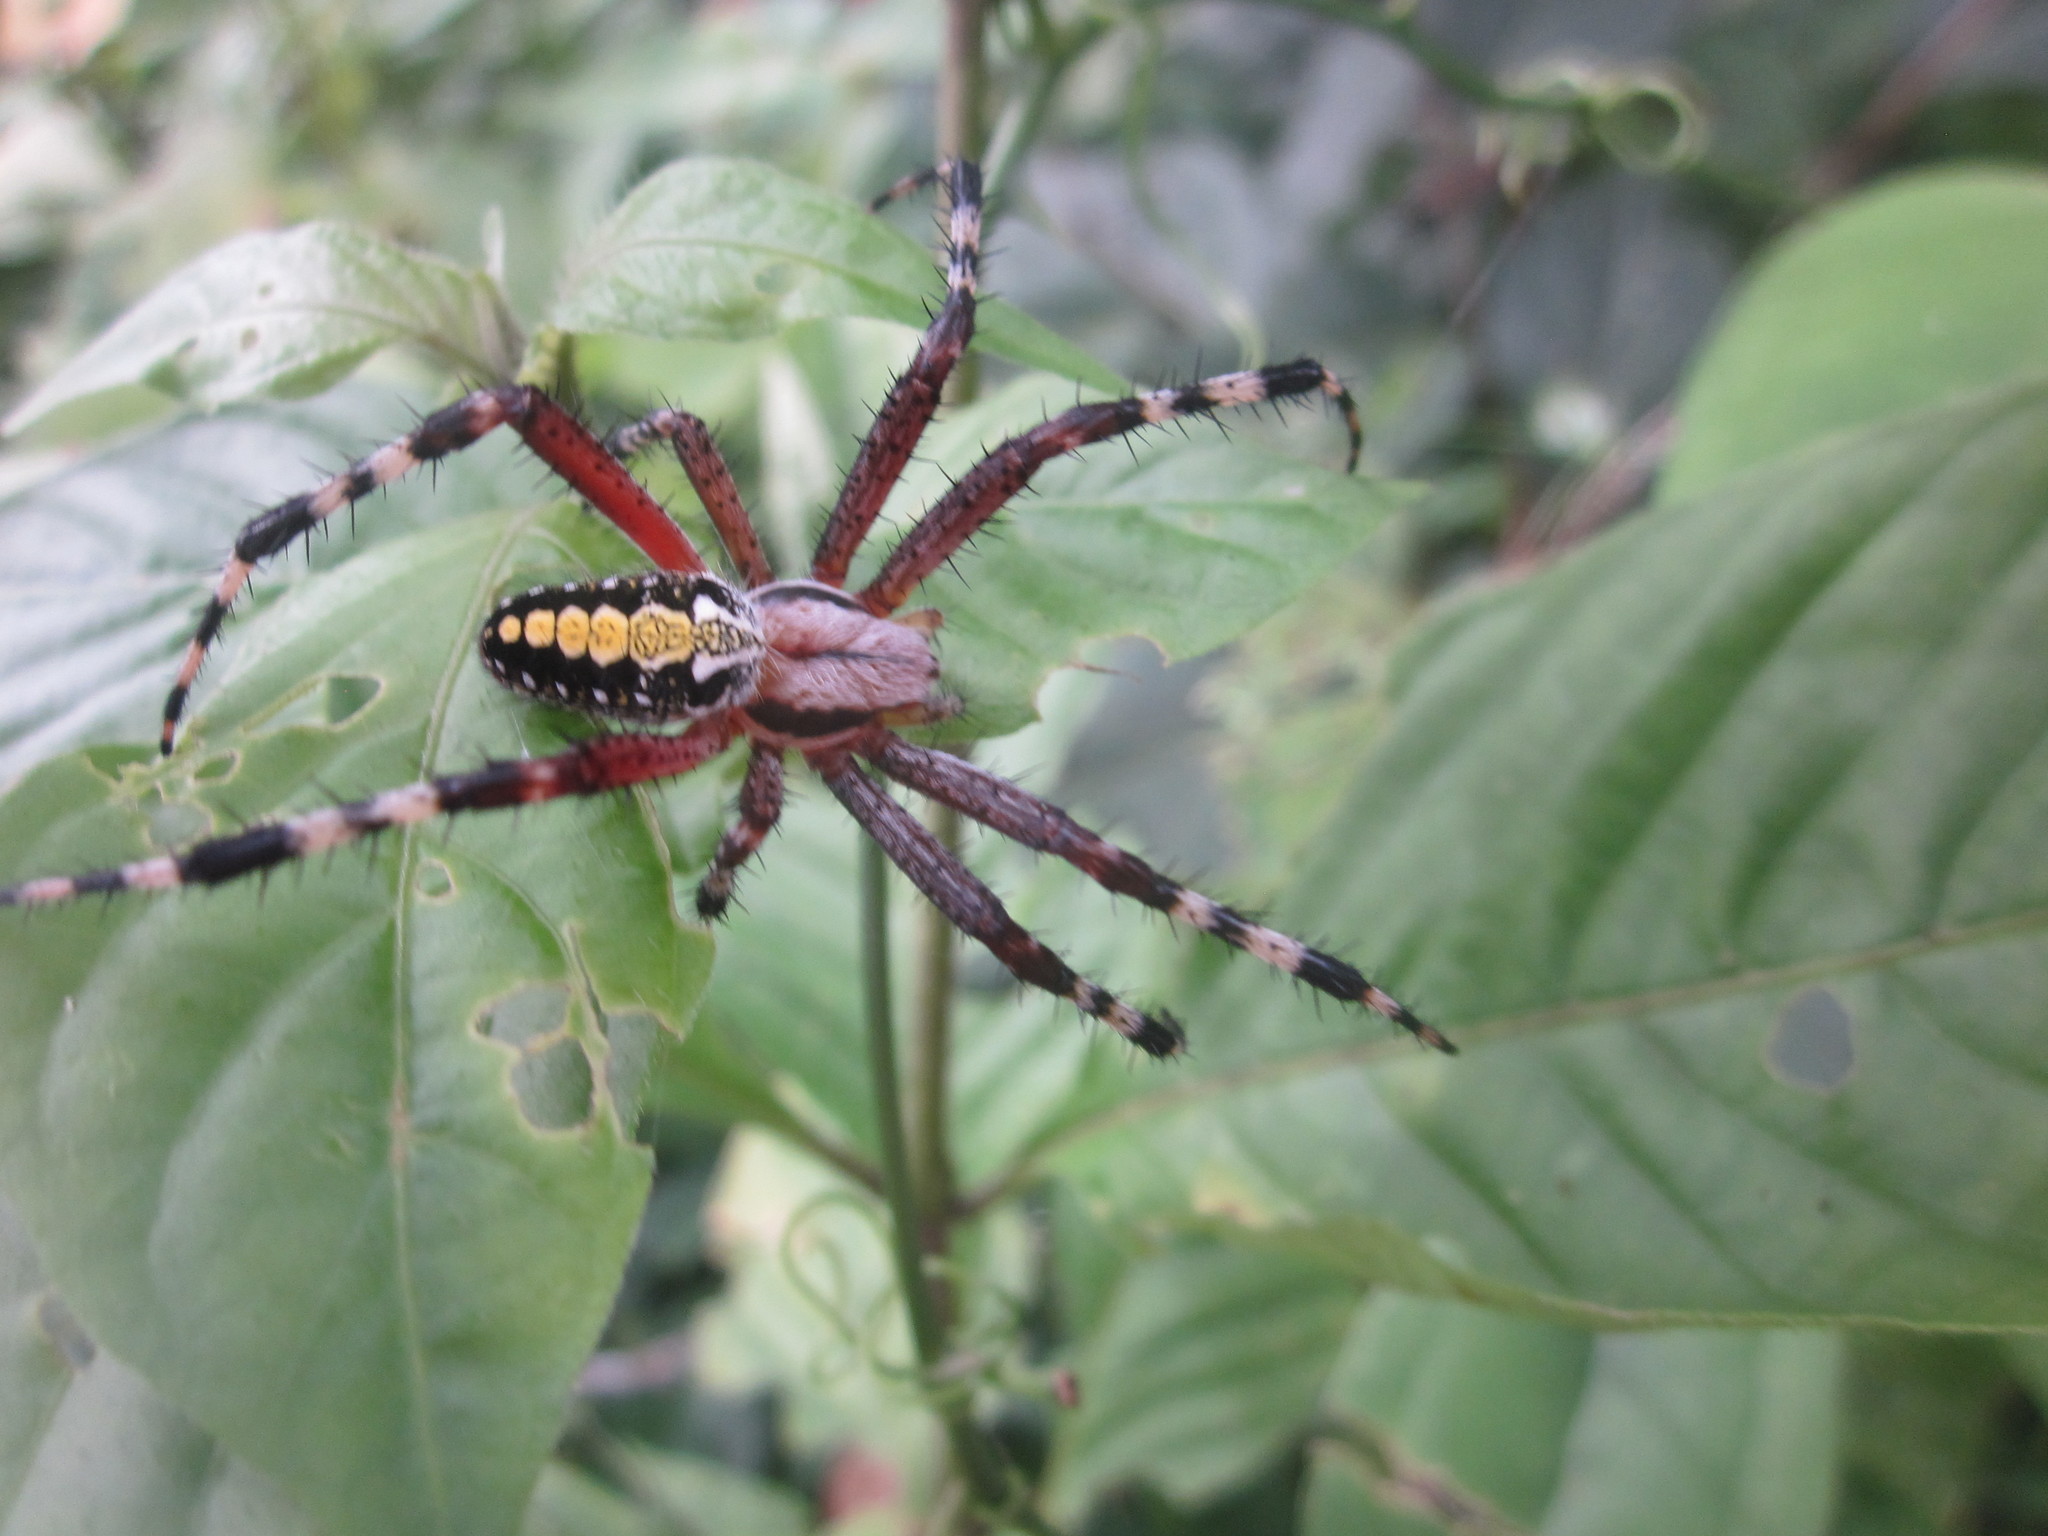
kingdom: Animalia
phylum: Arthropoda
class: Arachnida
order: Araneae
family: Araneidae
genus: Neoscona
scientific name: Neoscona oaxacensis
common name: Orb weavers
